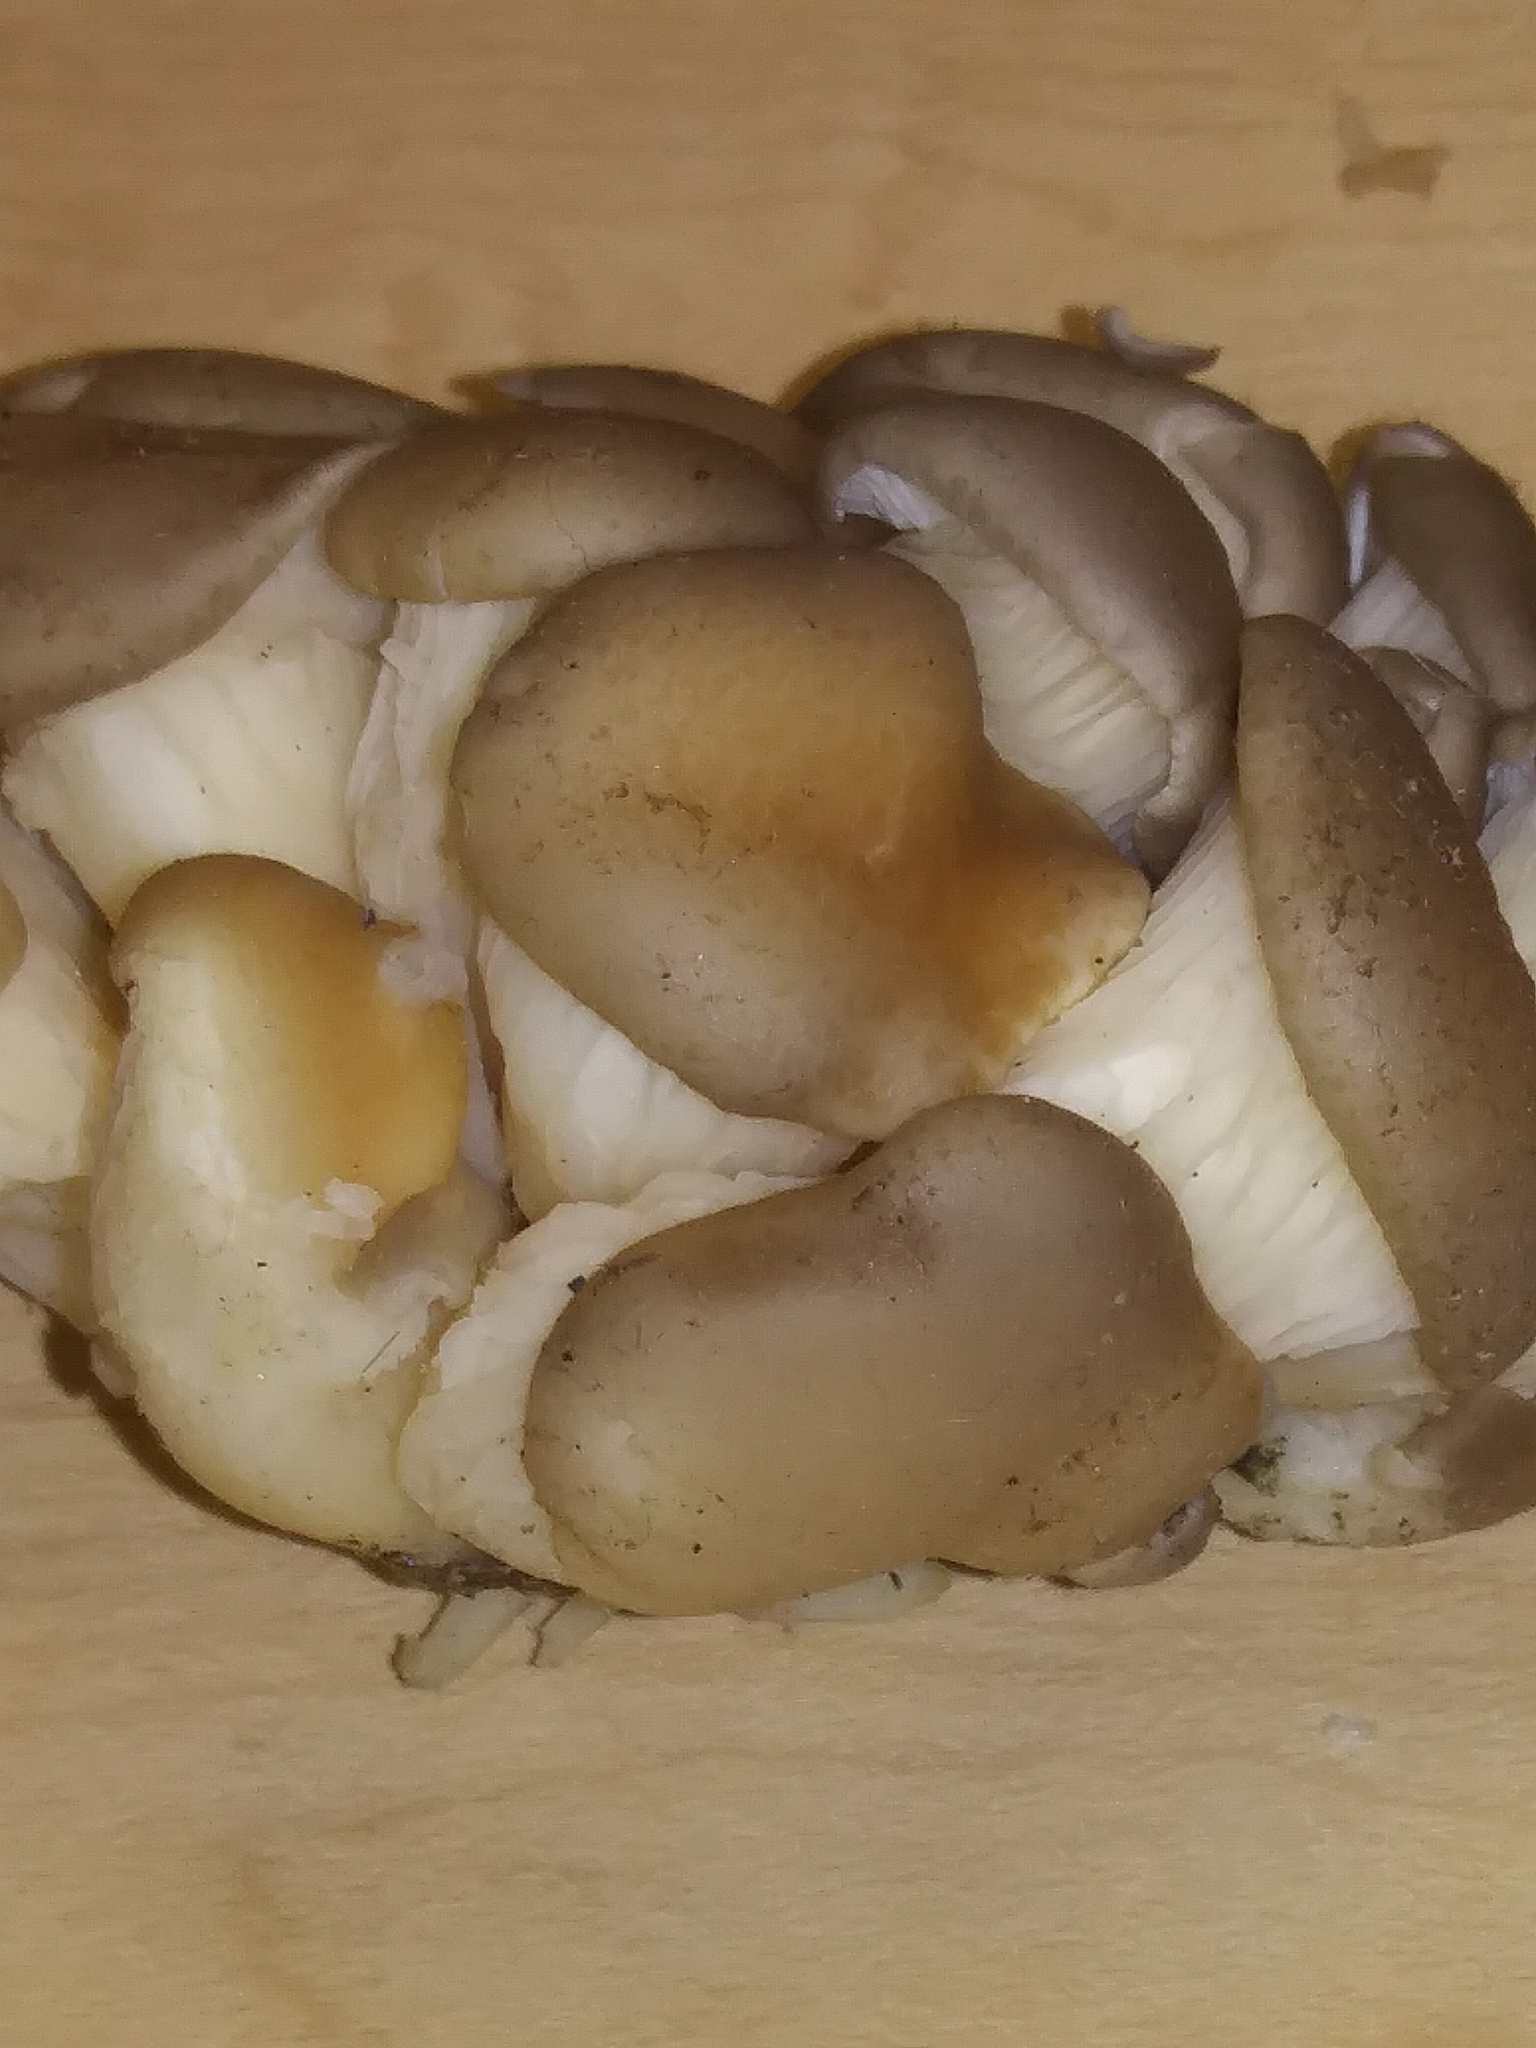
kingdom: Fungi
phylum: Basidiomycota
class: Agaricomycetes
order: Agaricales
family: Pleurotaceae
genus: Pleurotus
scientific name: Pleurotus ostreatus
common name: Oyster mushroom
